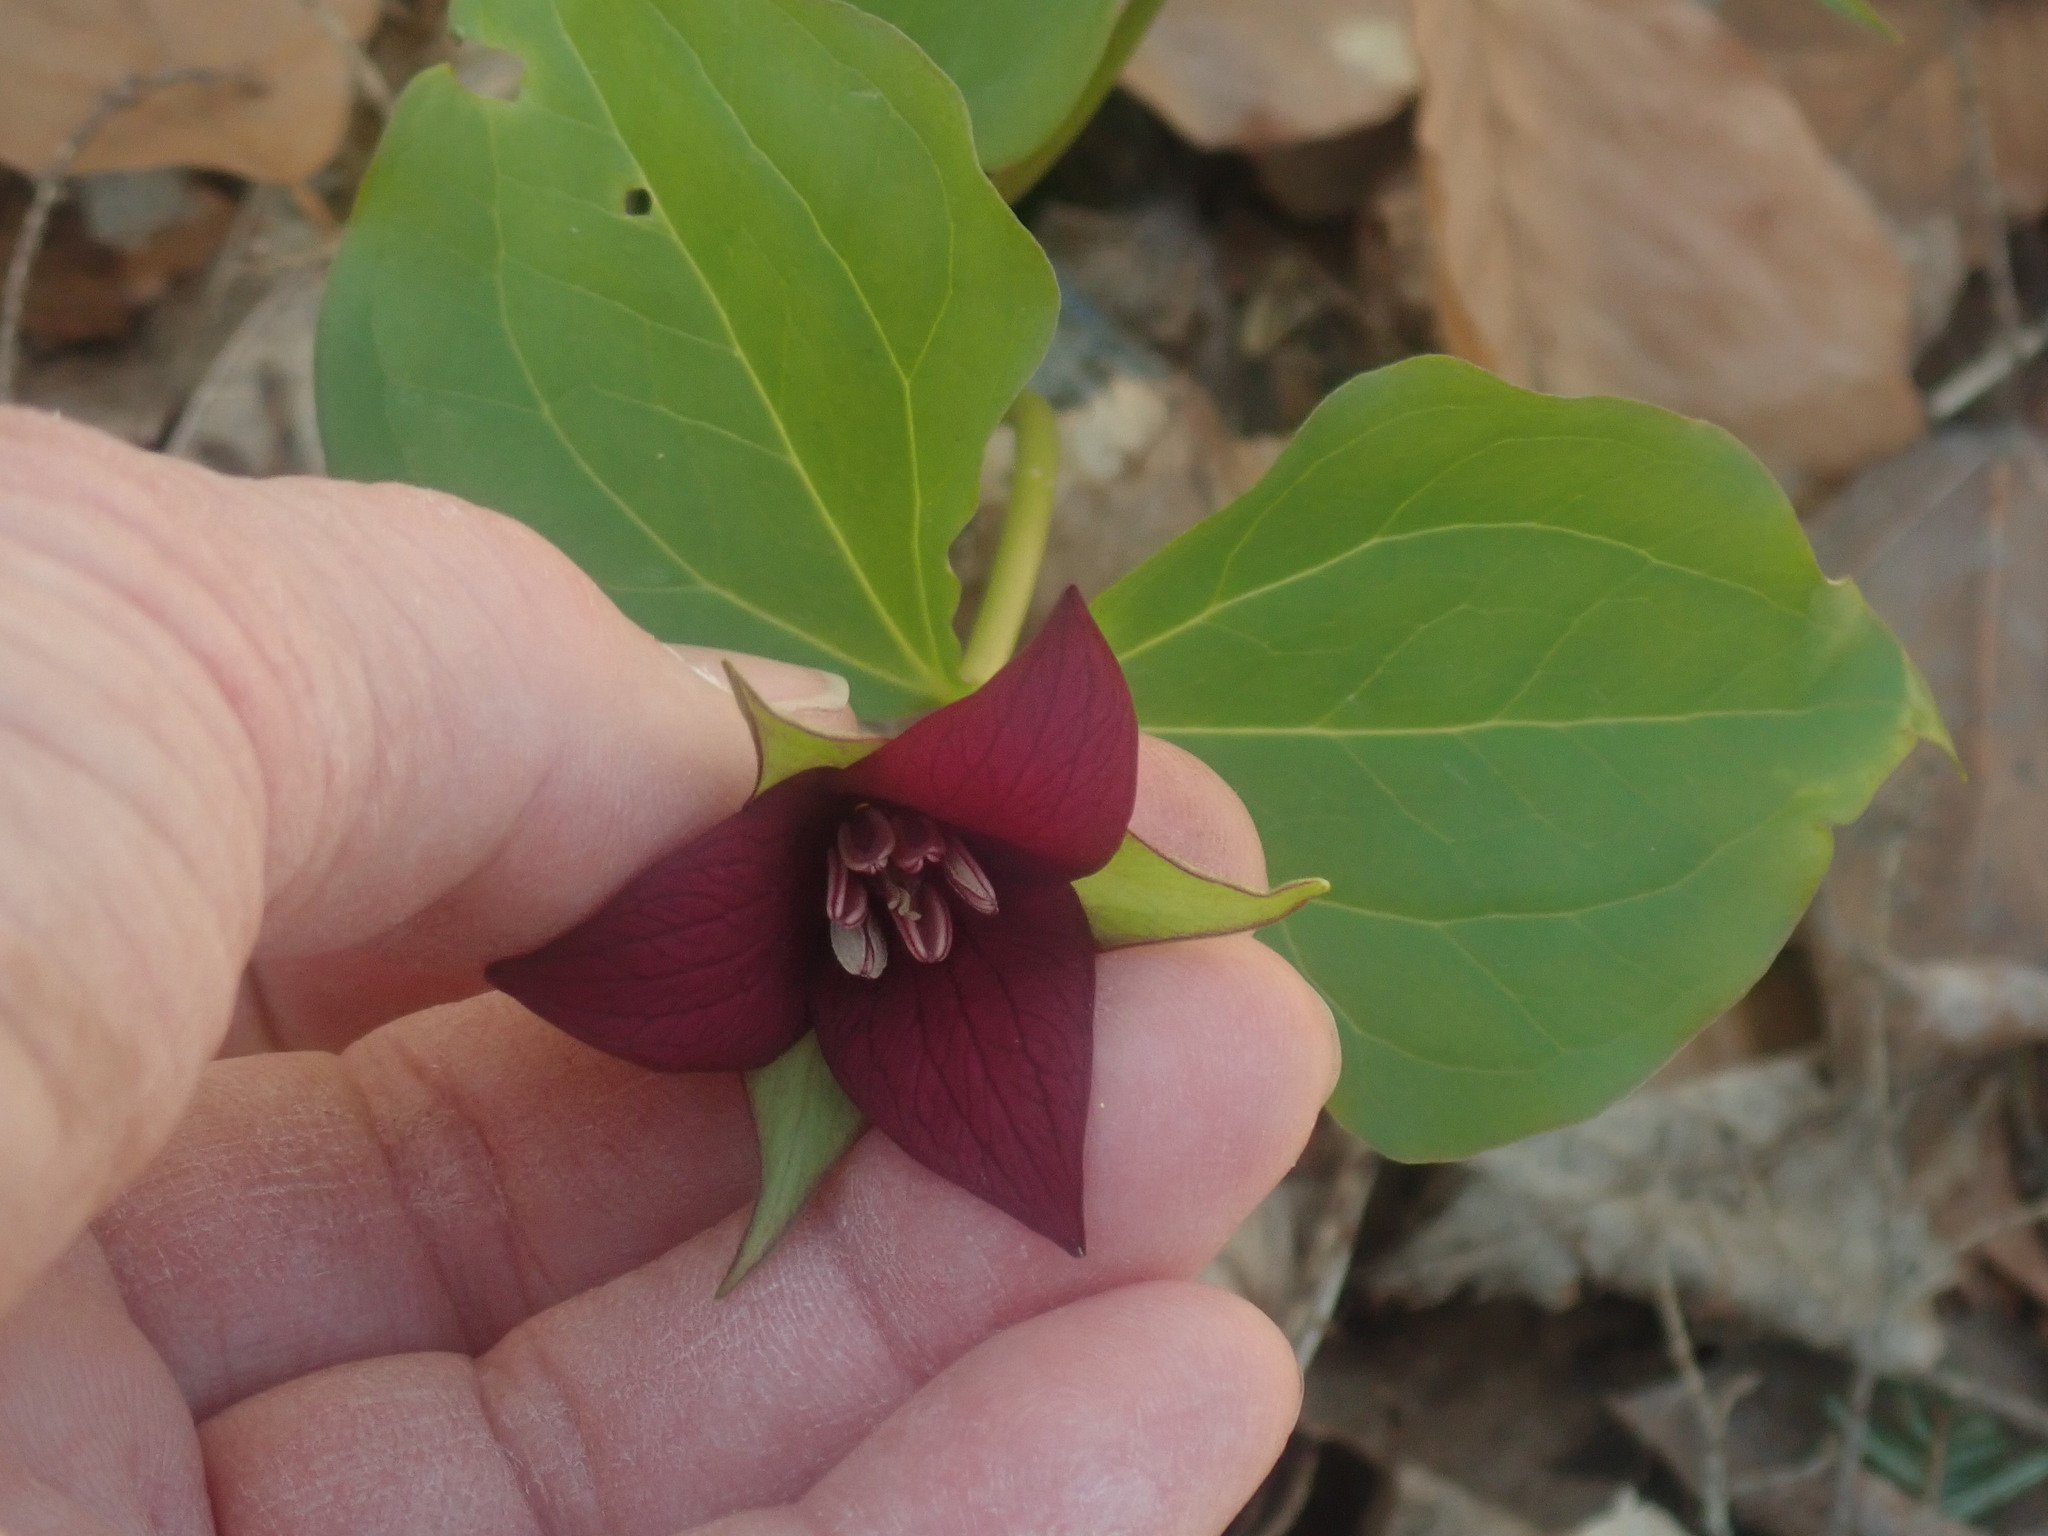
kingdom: Plantae
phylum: Tracheophyta
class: Liliopsida
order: Liliales
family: Melanthiaceae
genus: Trillium
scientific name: Trillium erectum
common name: Purple trillium
